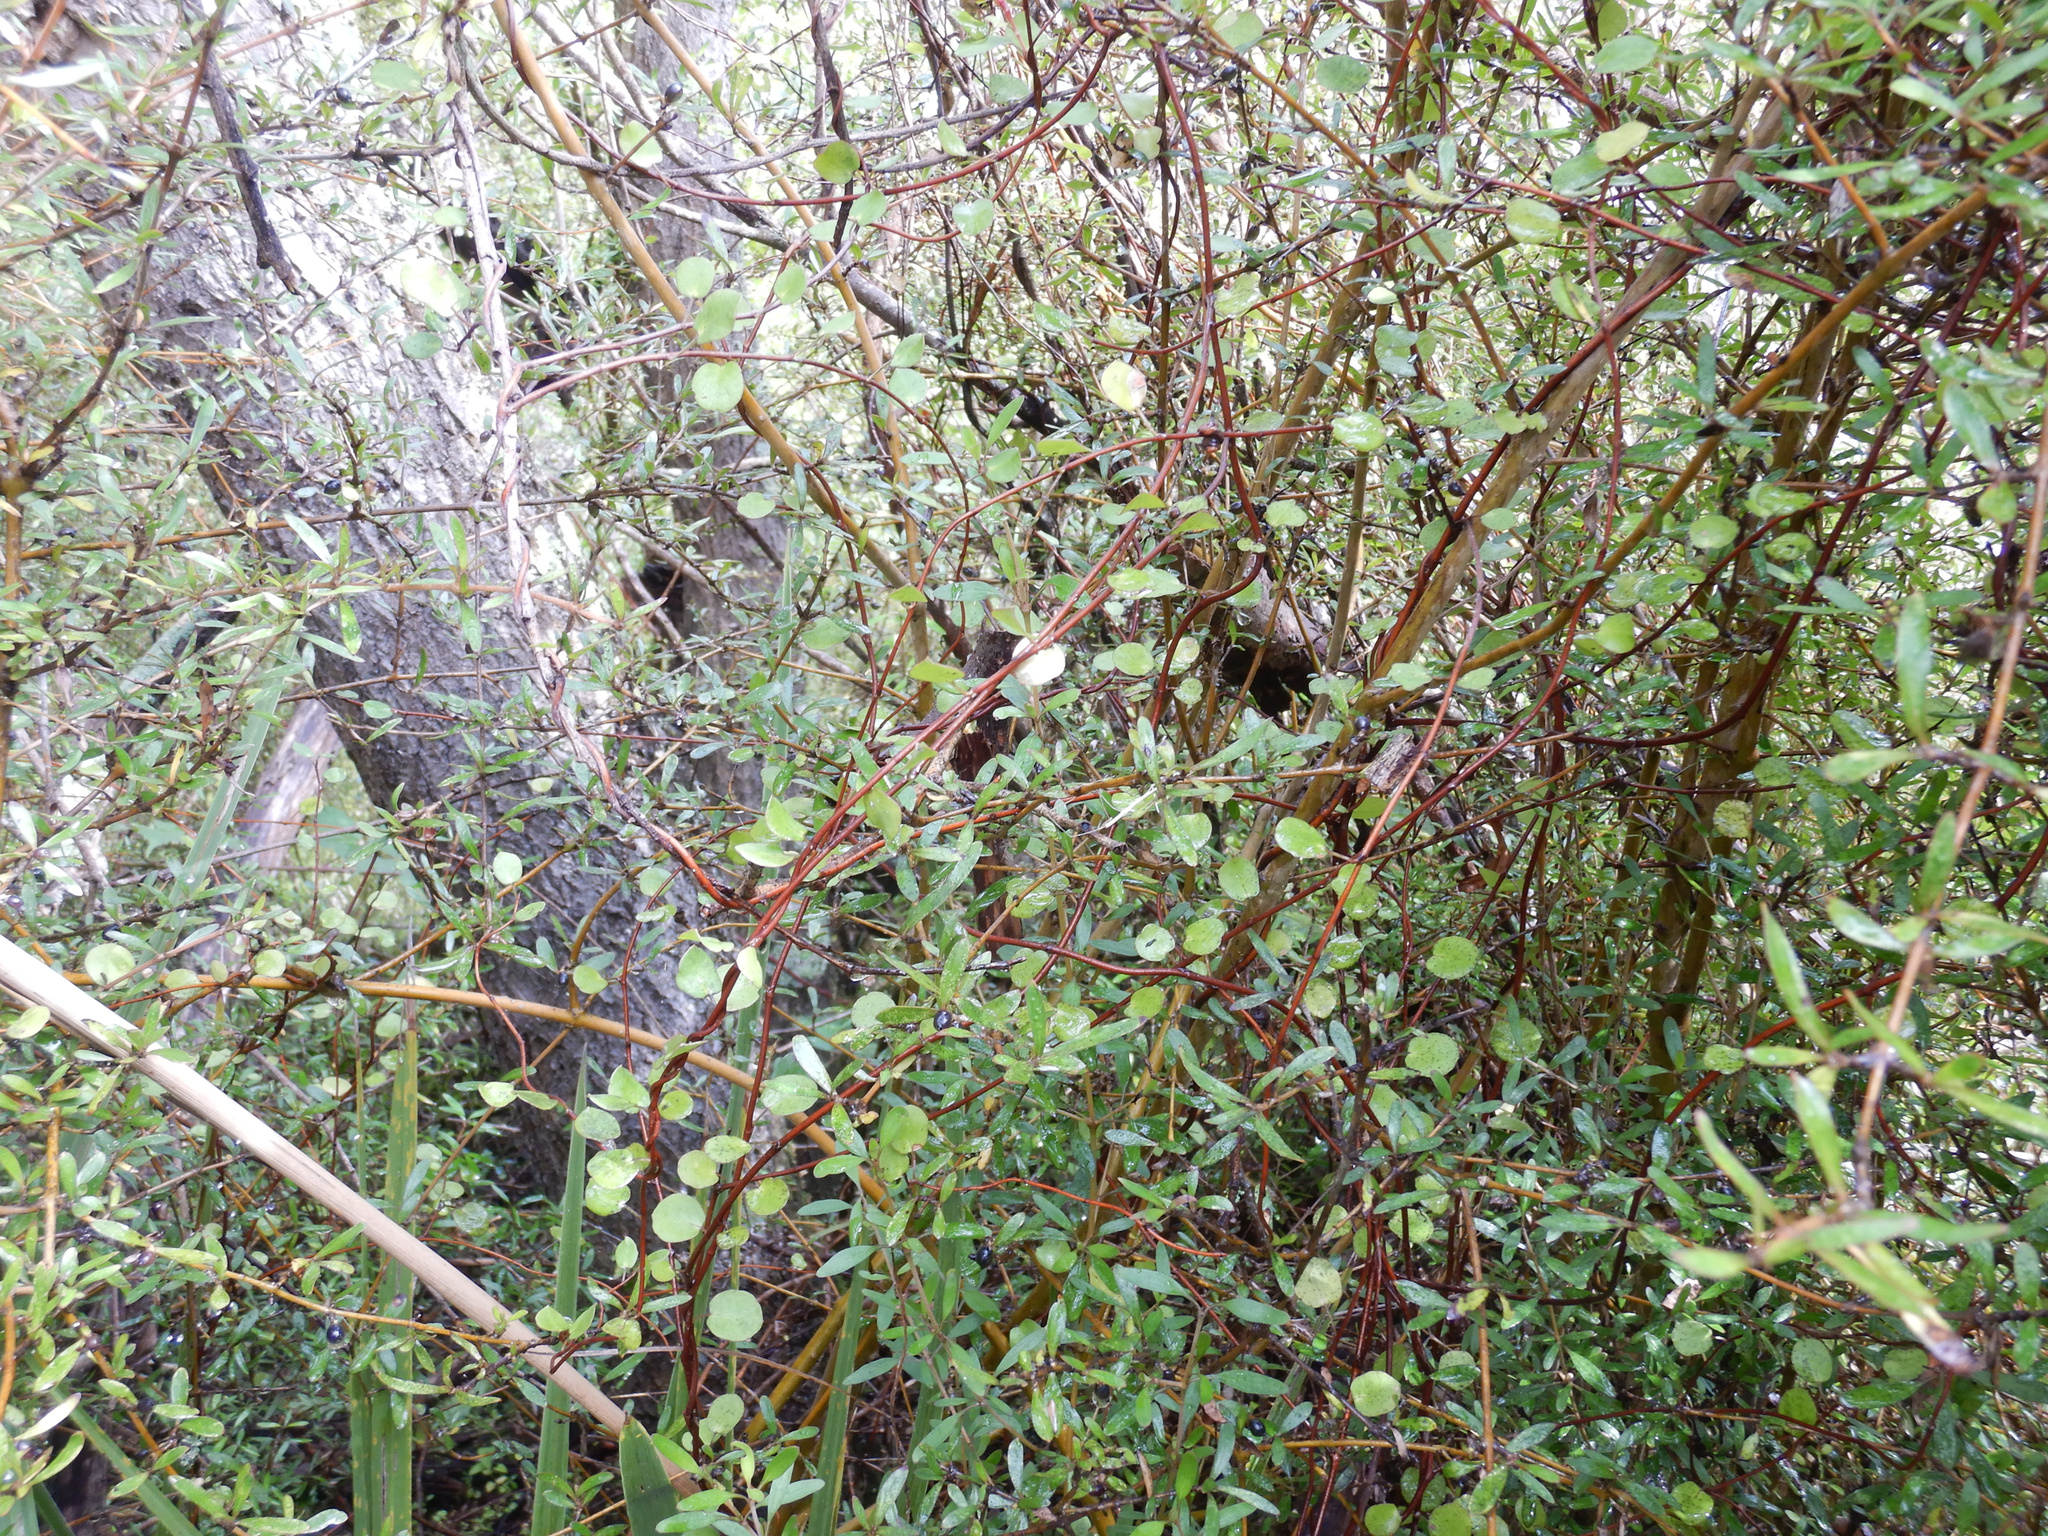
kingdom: Plantae
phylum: Tracheophyta
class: Magnoliopsida
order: Caryophyllales
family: Polygonaceae
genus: Muehlenbeckia
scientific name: Muehlenbeckia complexa
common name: Wireplant
